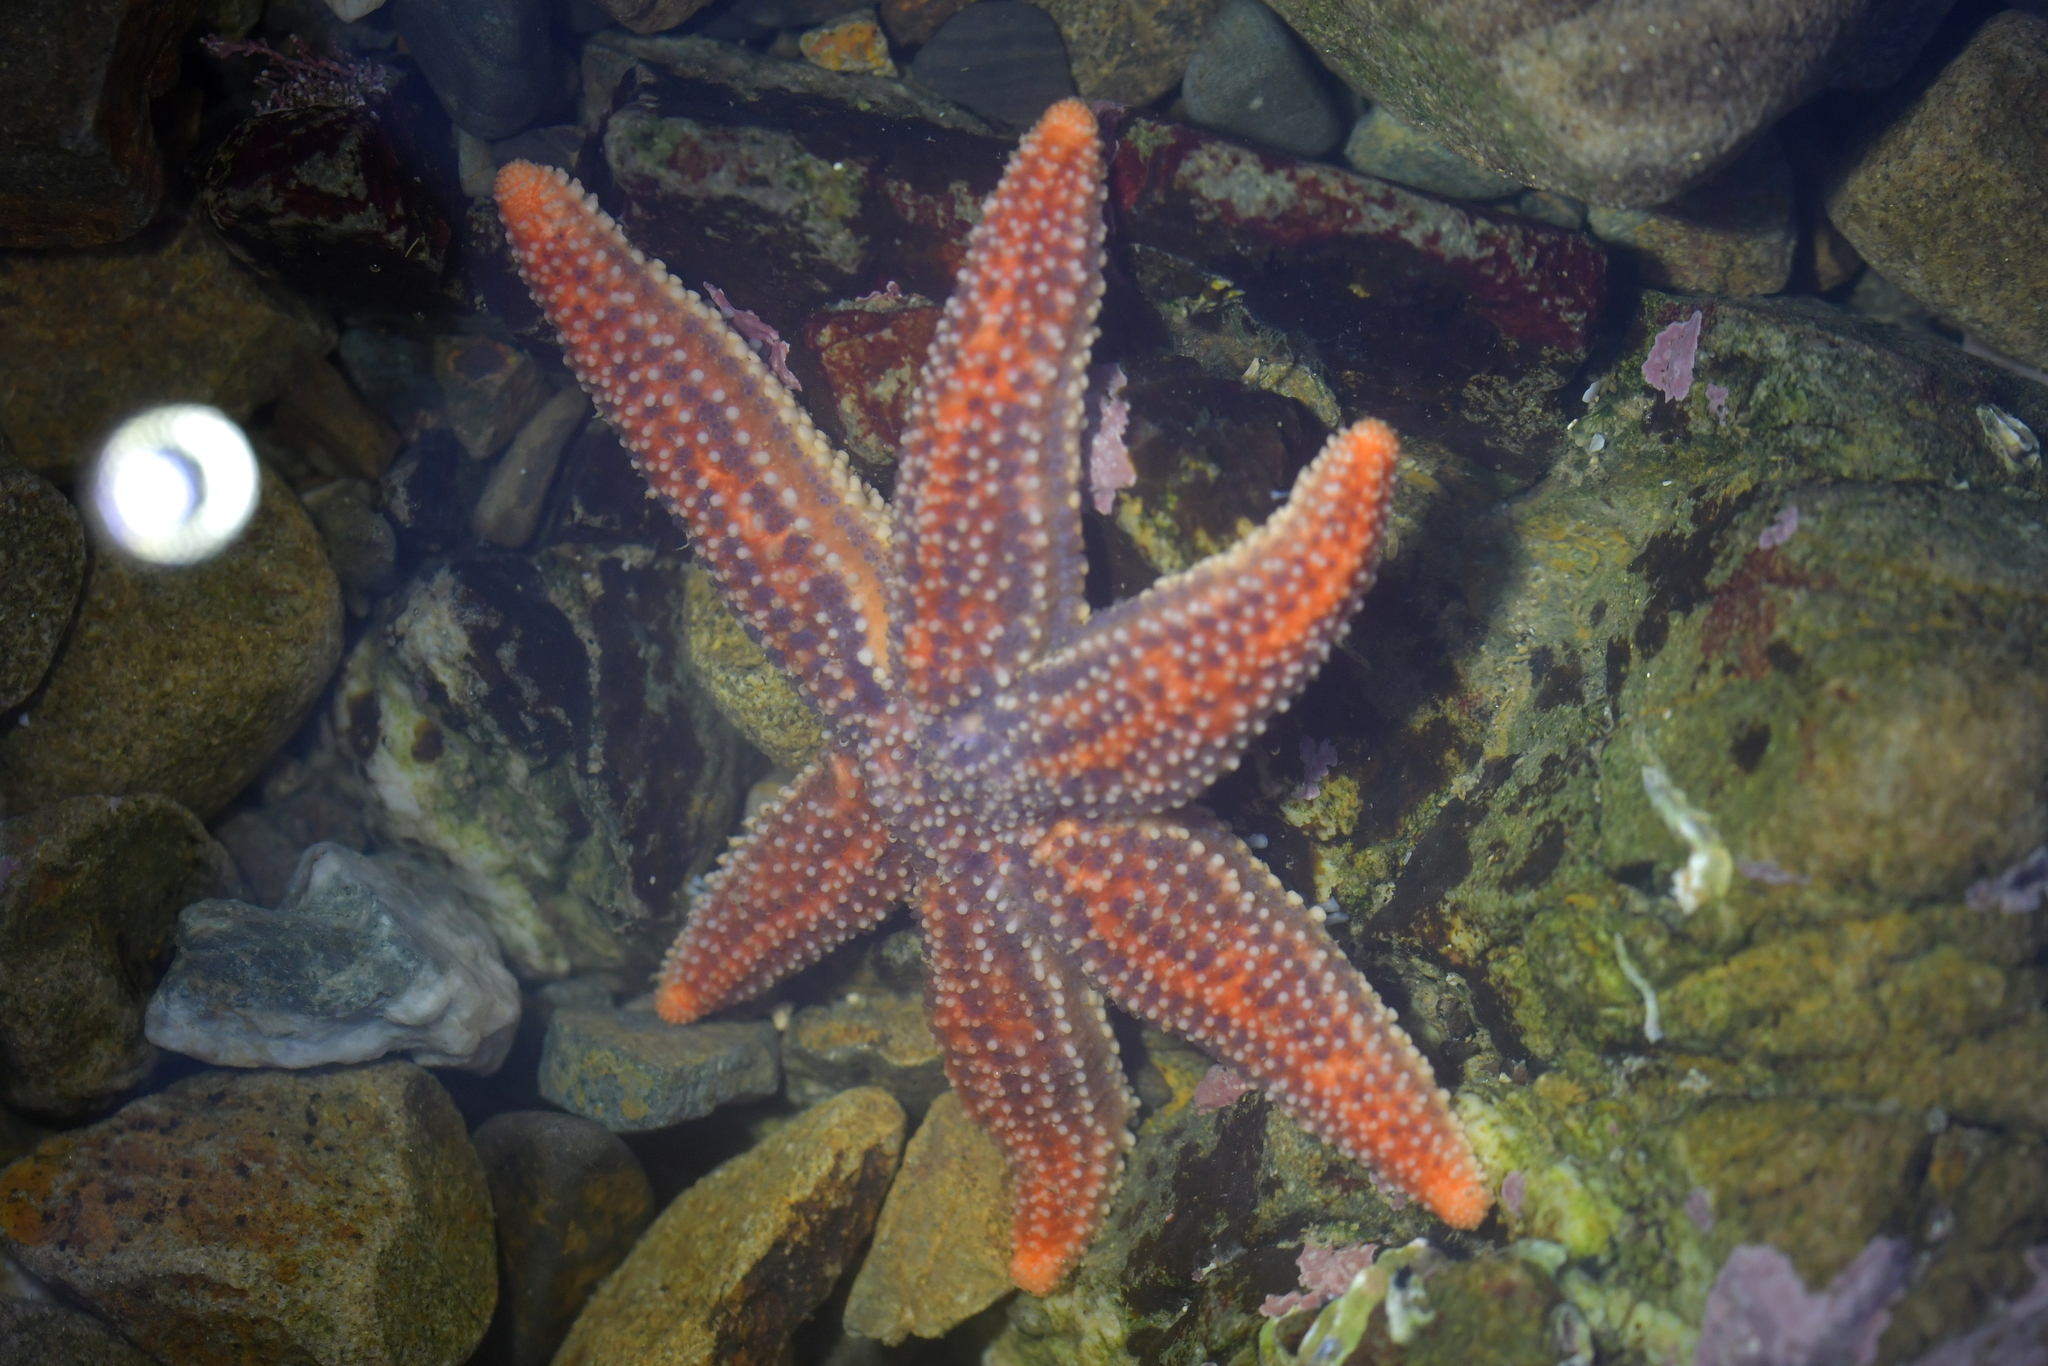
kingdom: Animalia
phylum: Echinodermata
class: Asteroidea
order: Forcipulatida
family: Stichasteridae
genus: Allostichaster
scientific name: Allostichaster insignis
